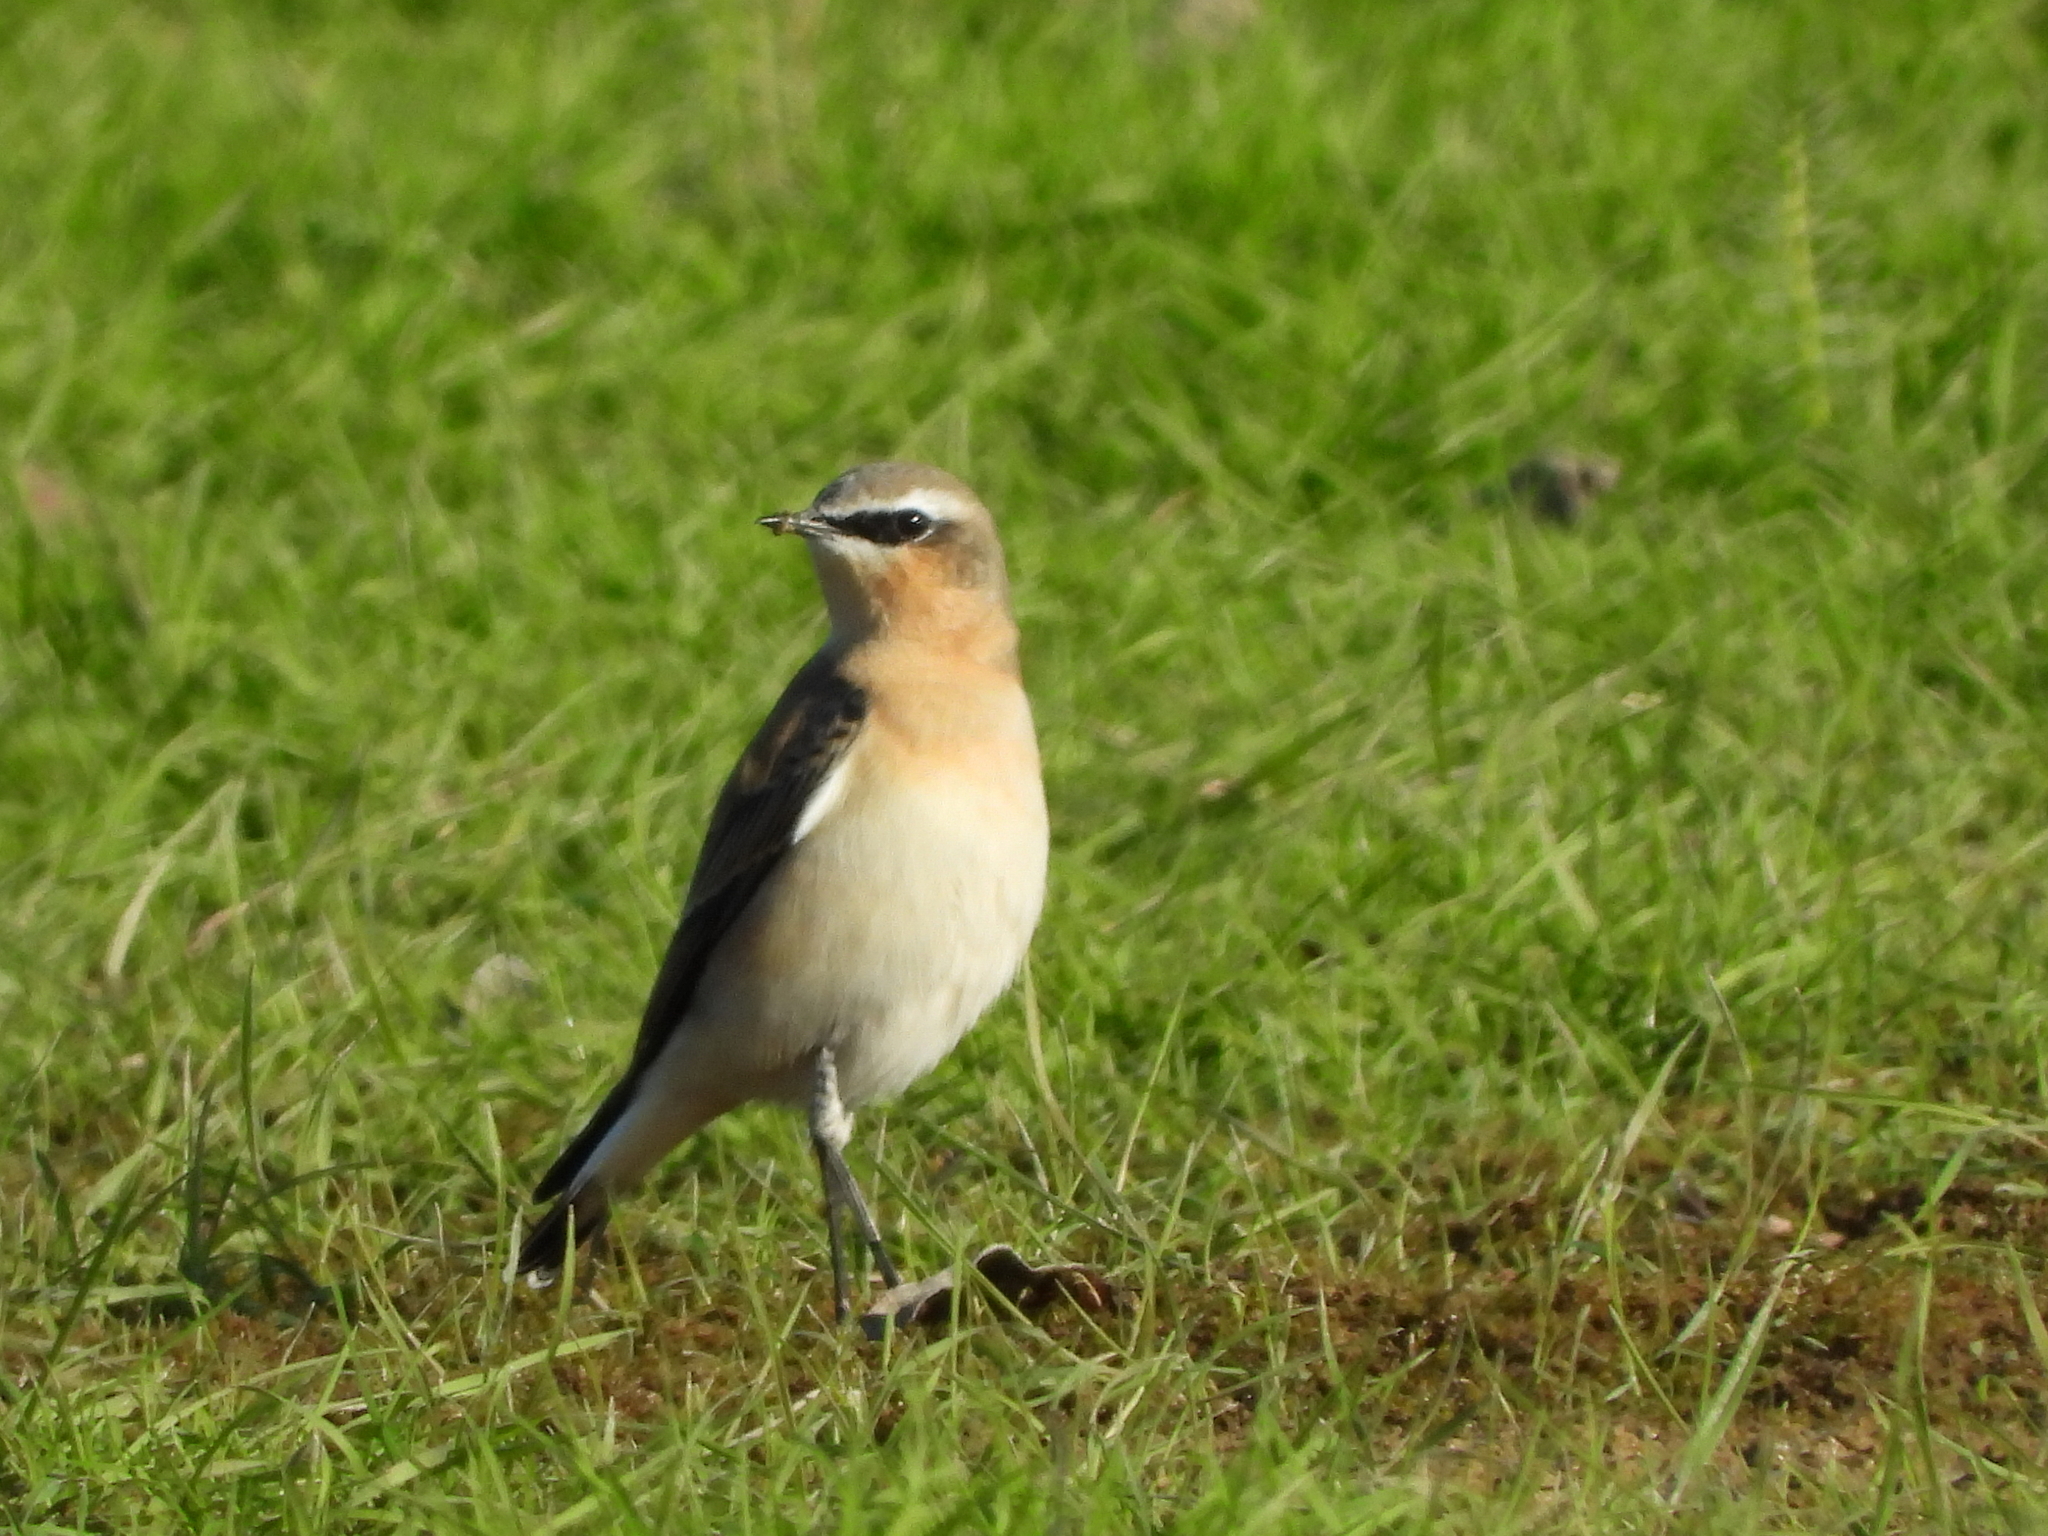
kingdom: Animalia
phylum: Chordata
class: Aves
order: Passeriformes
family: Muscicapidae
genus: Oenanthe
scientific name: Oenanthe oenanthe
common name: Northern wheatear
